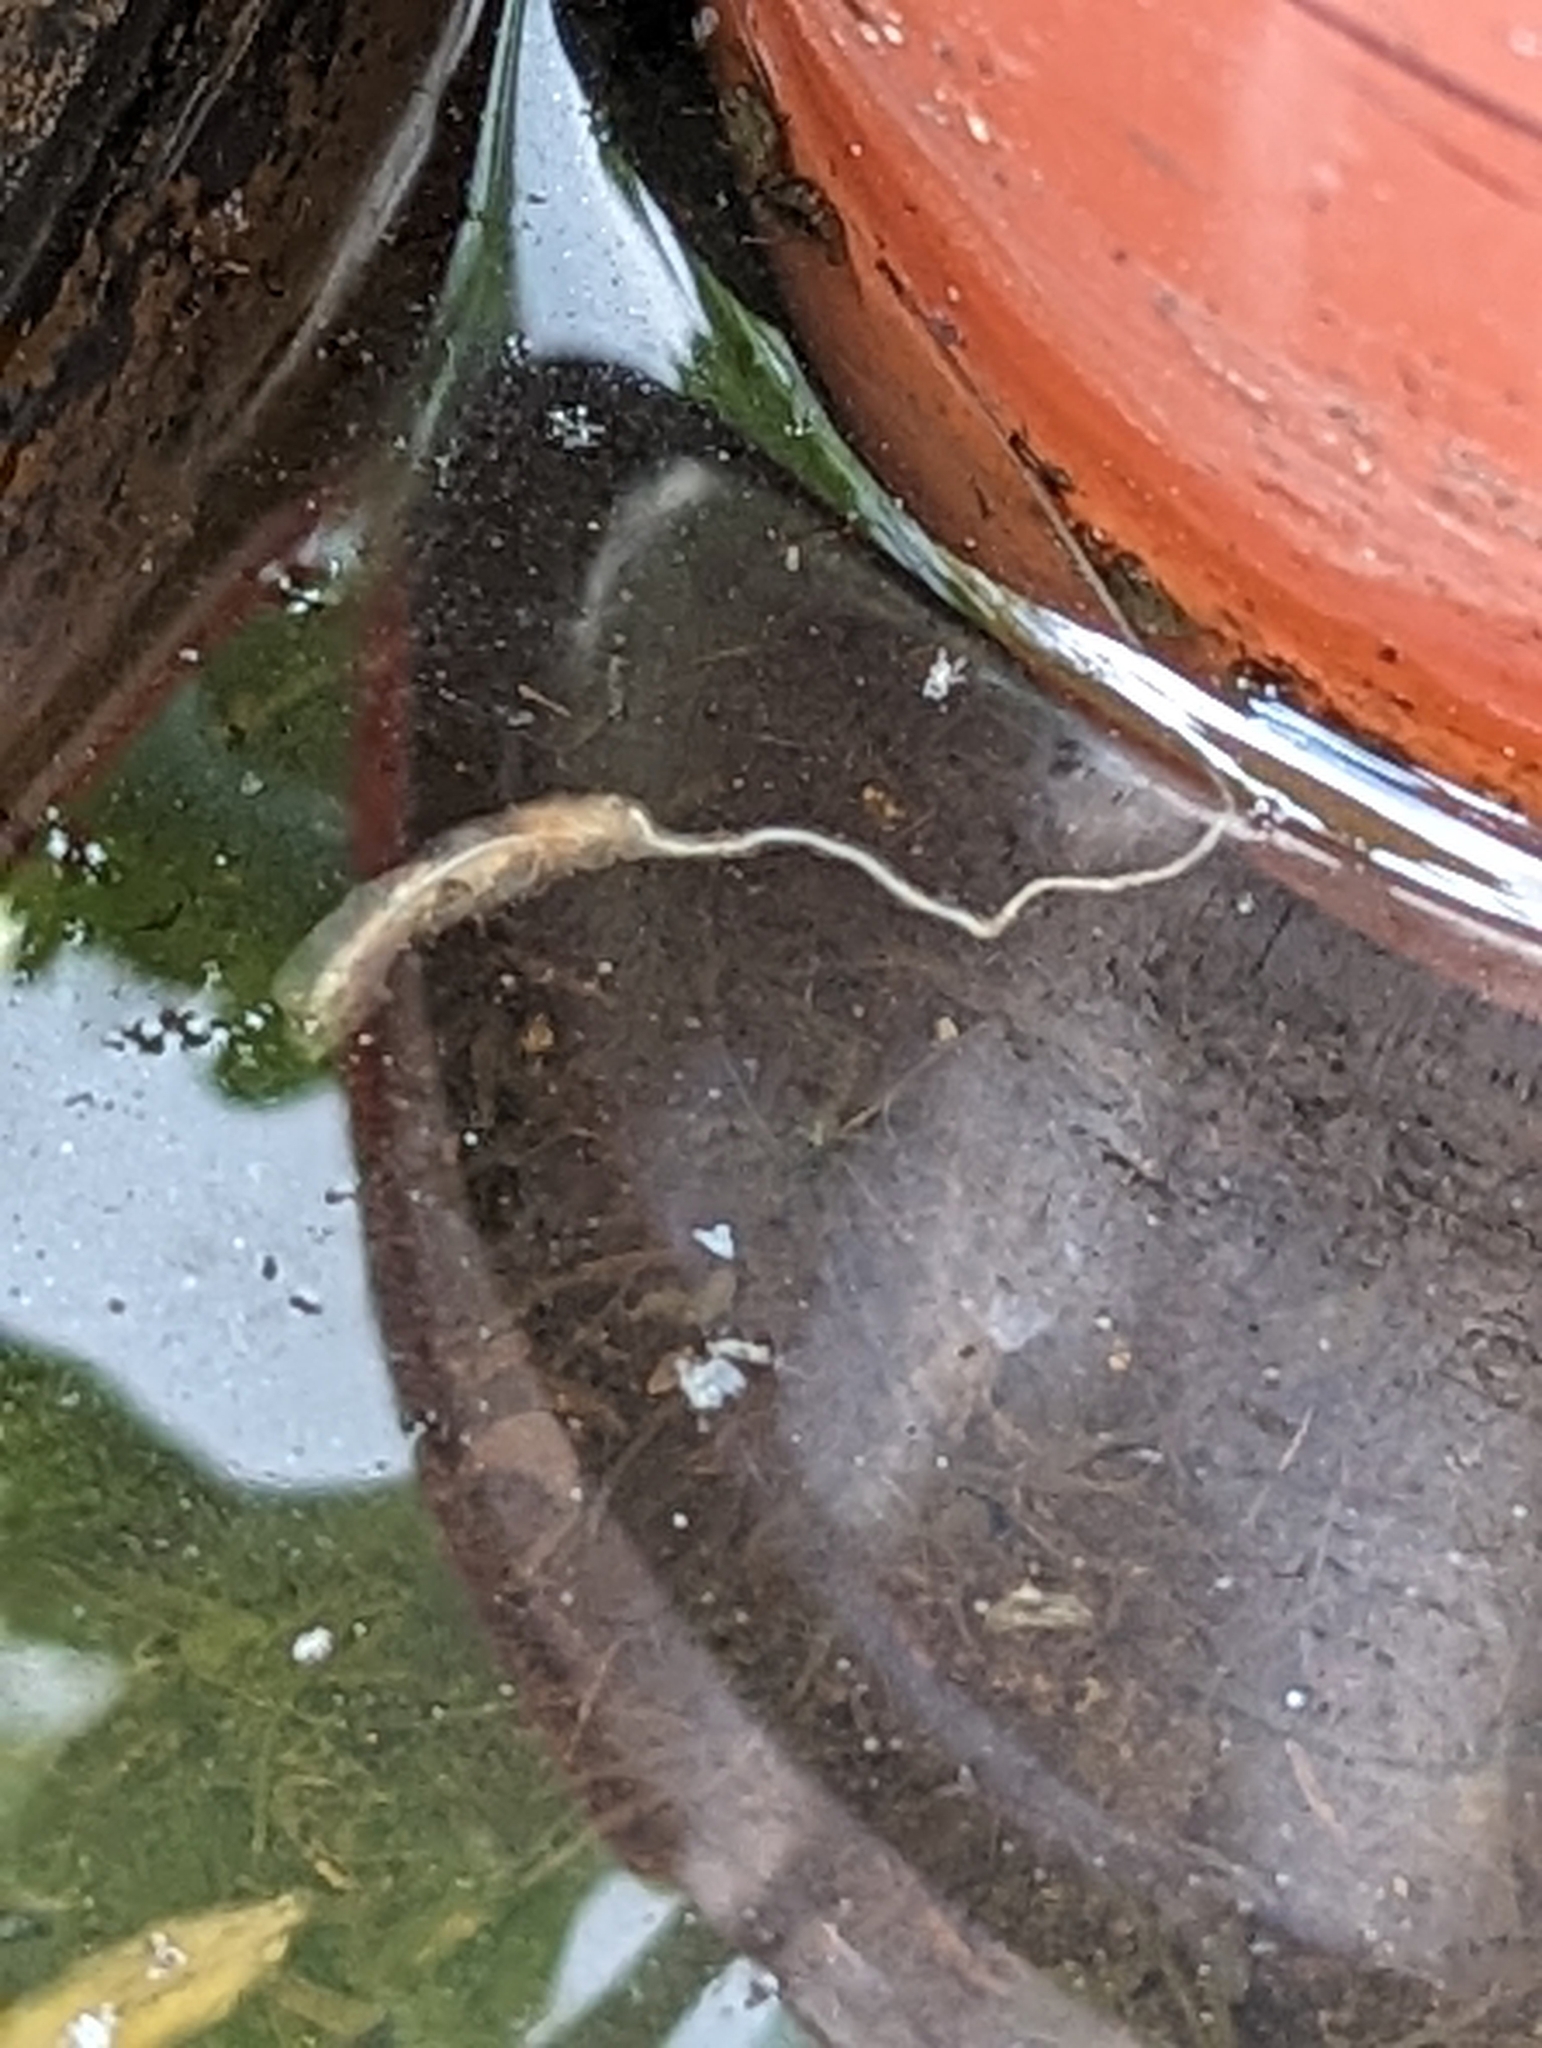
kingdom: Animalia
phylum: Arthropoda
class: Insecta
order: Diptera
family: Syrphidae
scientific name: Syrphidae
